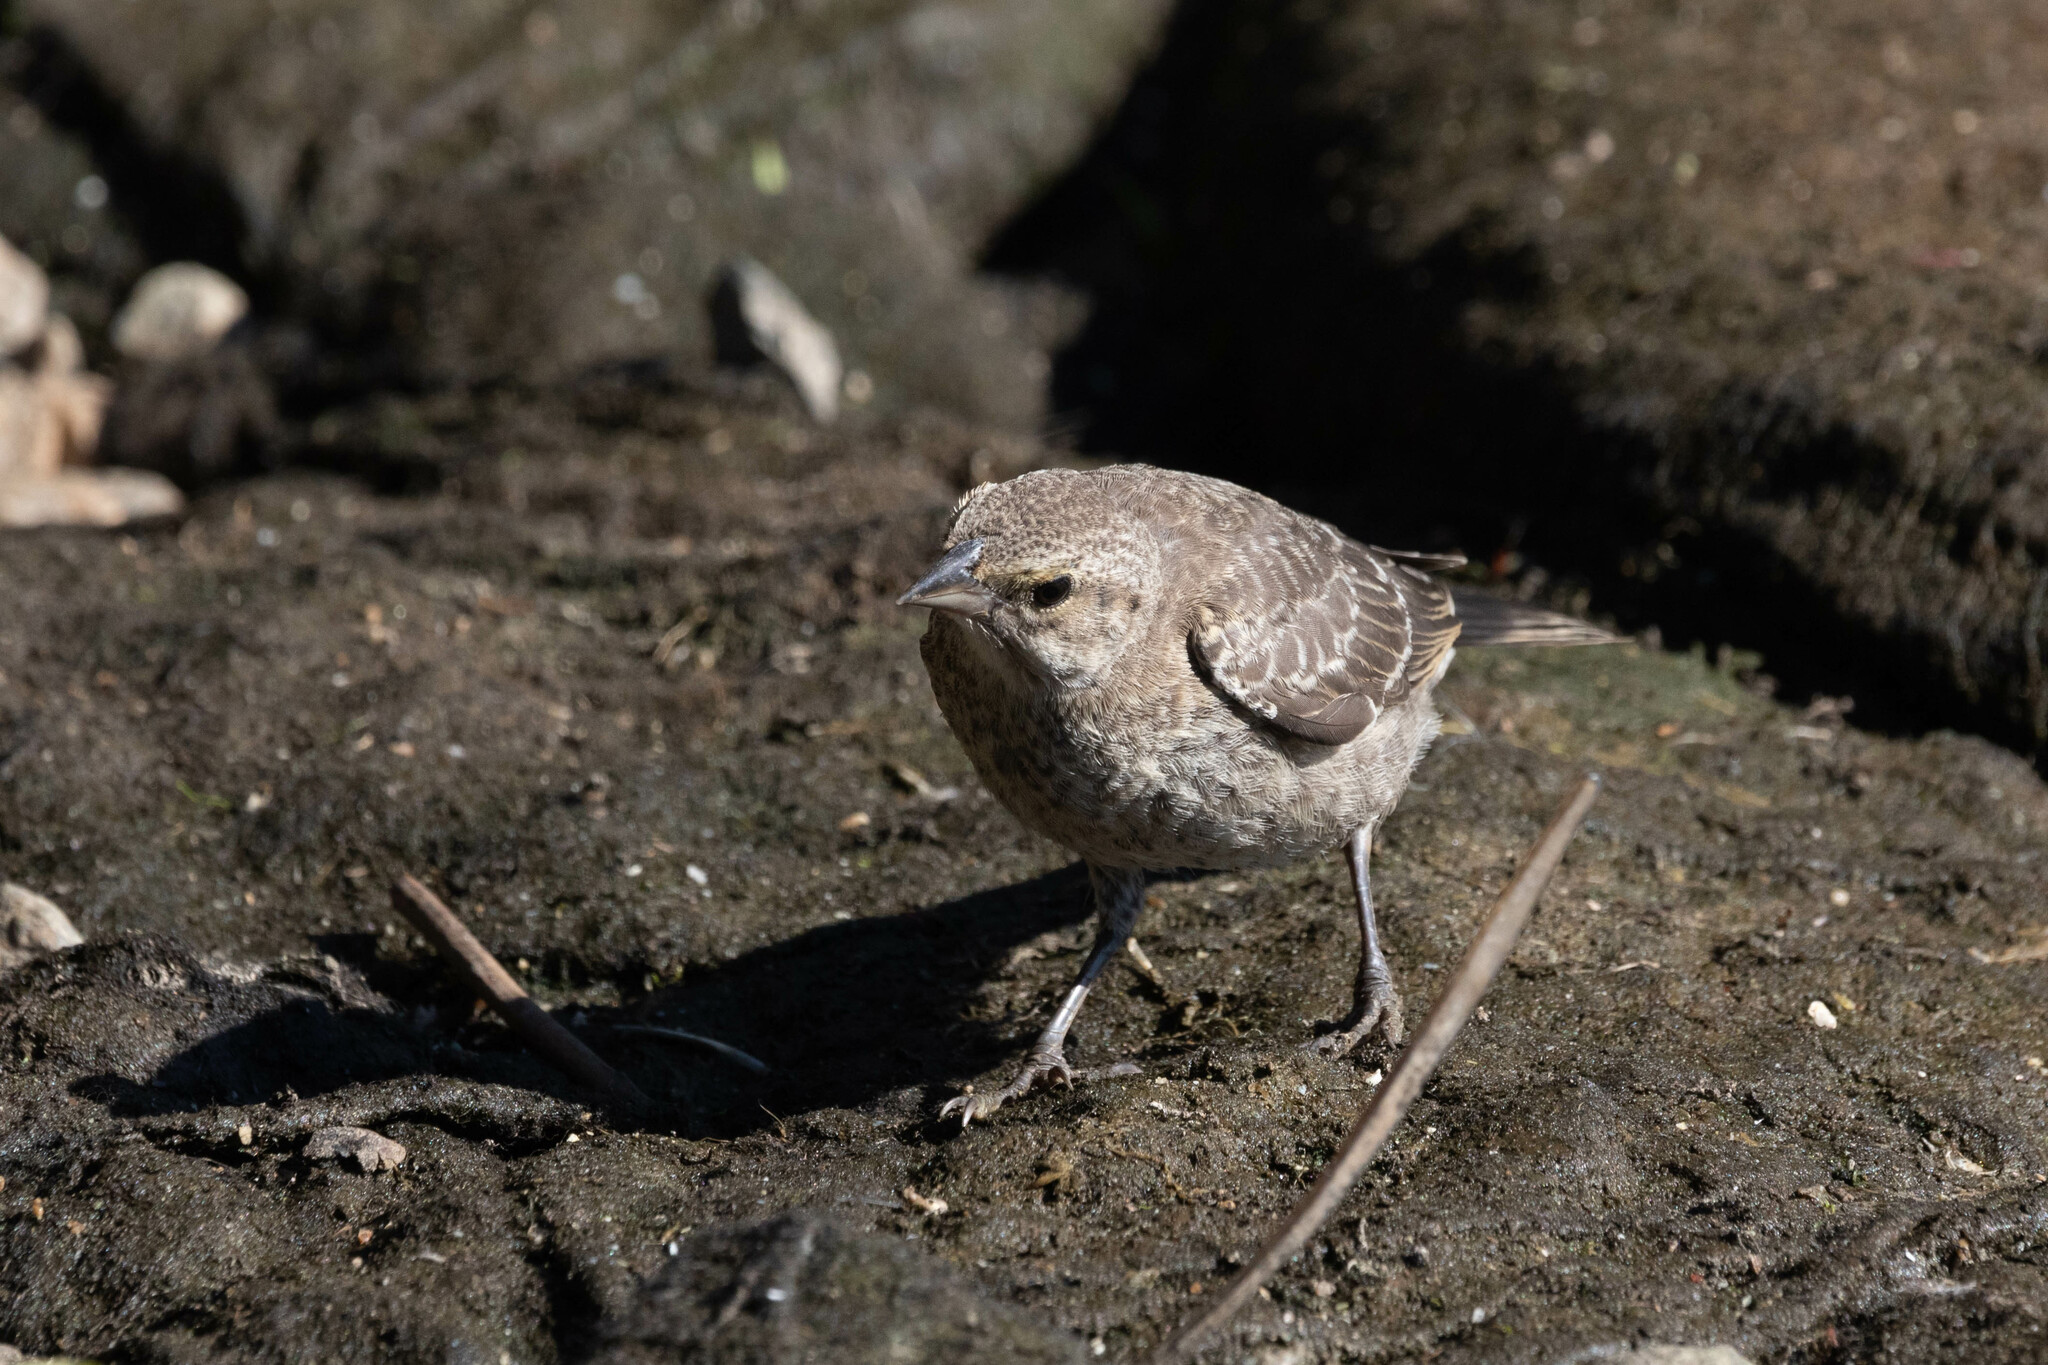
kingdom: Animalia
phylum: Chordata
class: Aves
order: Passeriformes
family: Icteridae
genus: Molothrus
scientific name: Molothrus ater
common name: Brown-headed cowbird
